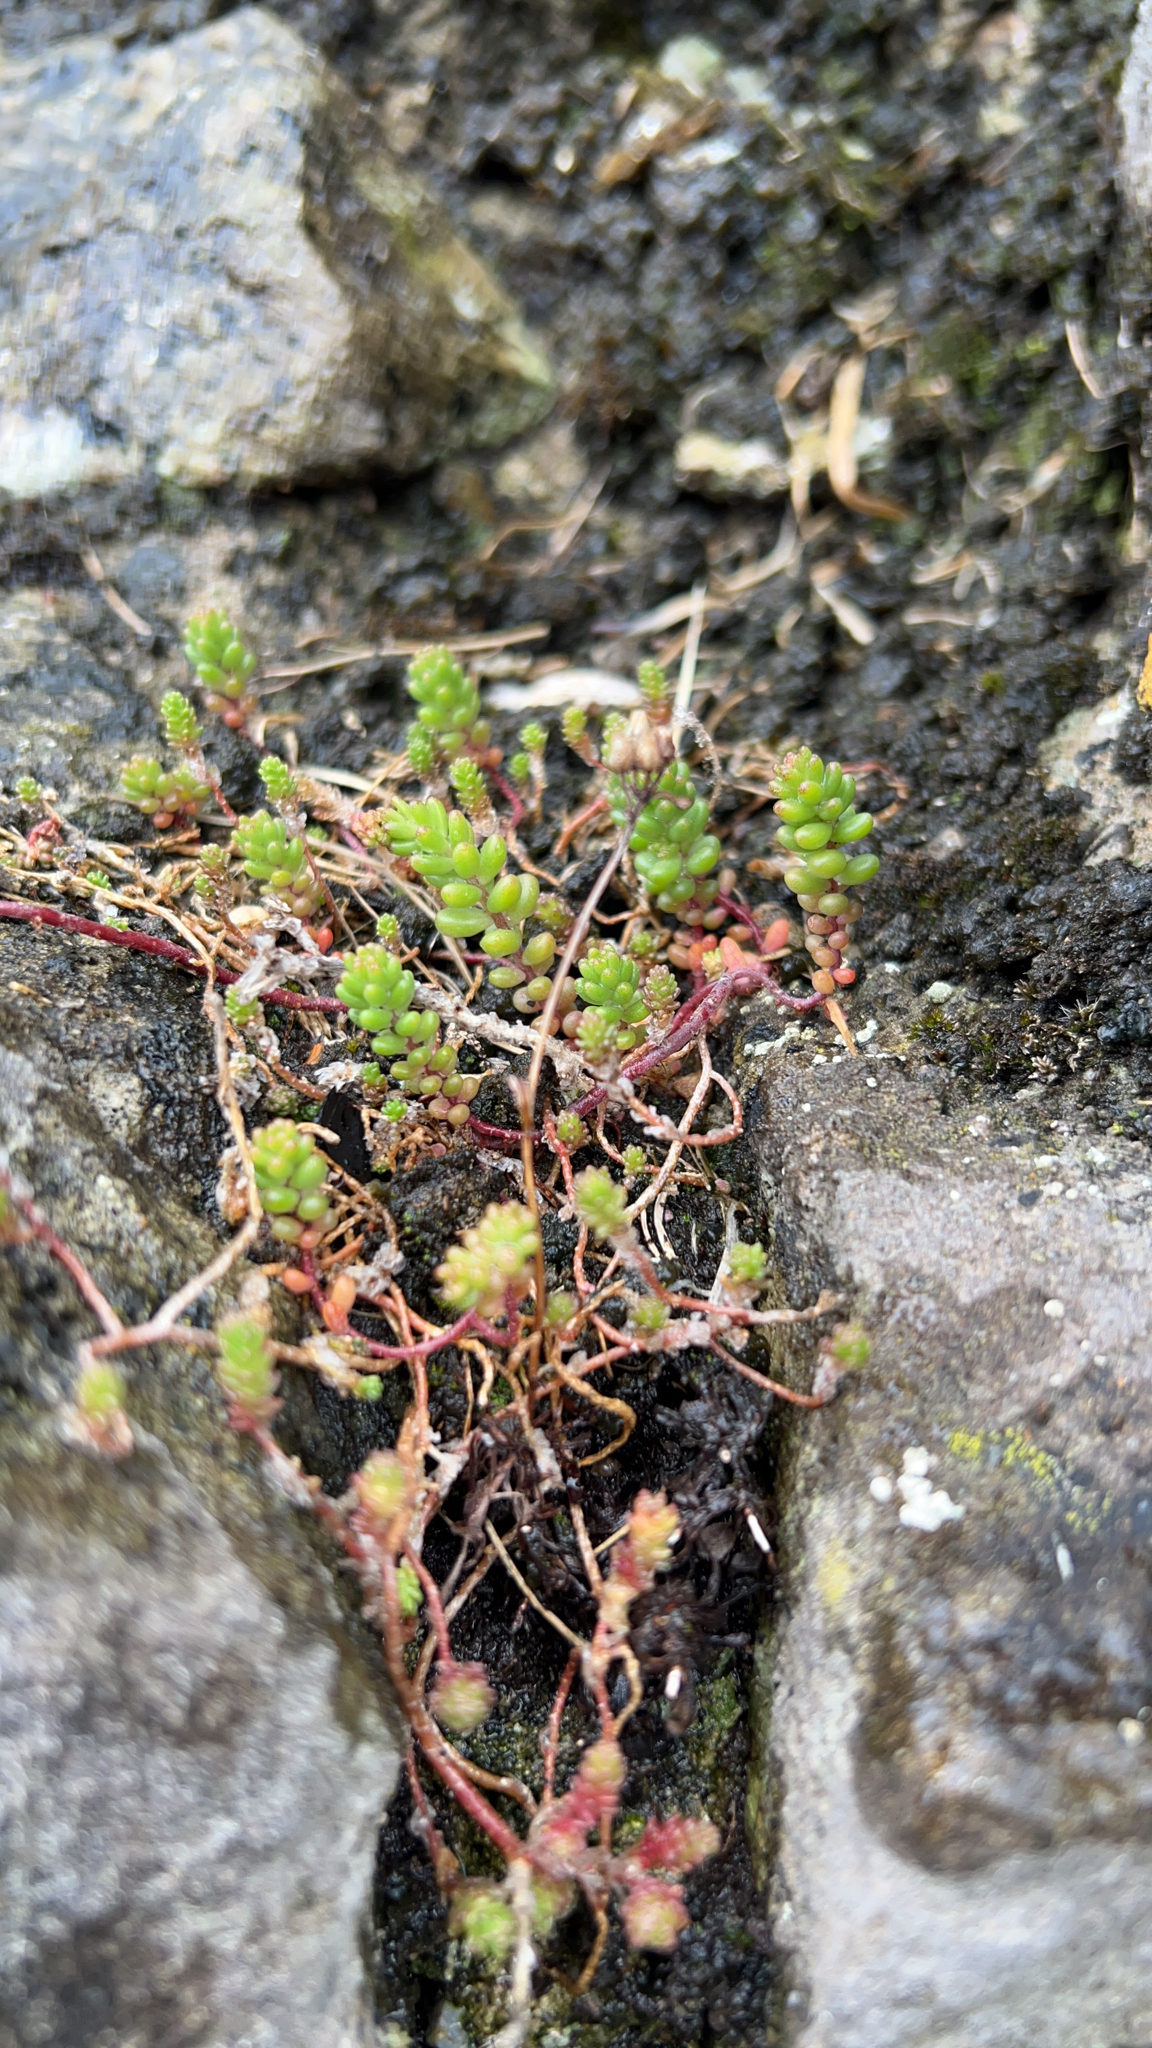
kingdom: Plantae
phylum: Tracheophyta
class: Magnoliopsida
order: Saxifragales
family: Crassulaceae
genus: Sedum
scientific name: Sedum album
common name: White stonecrop
